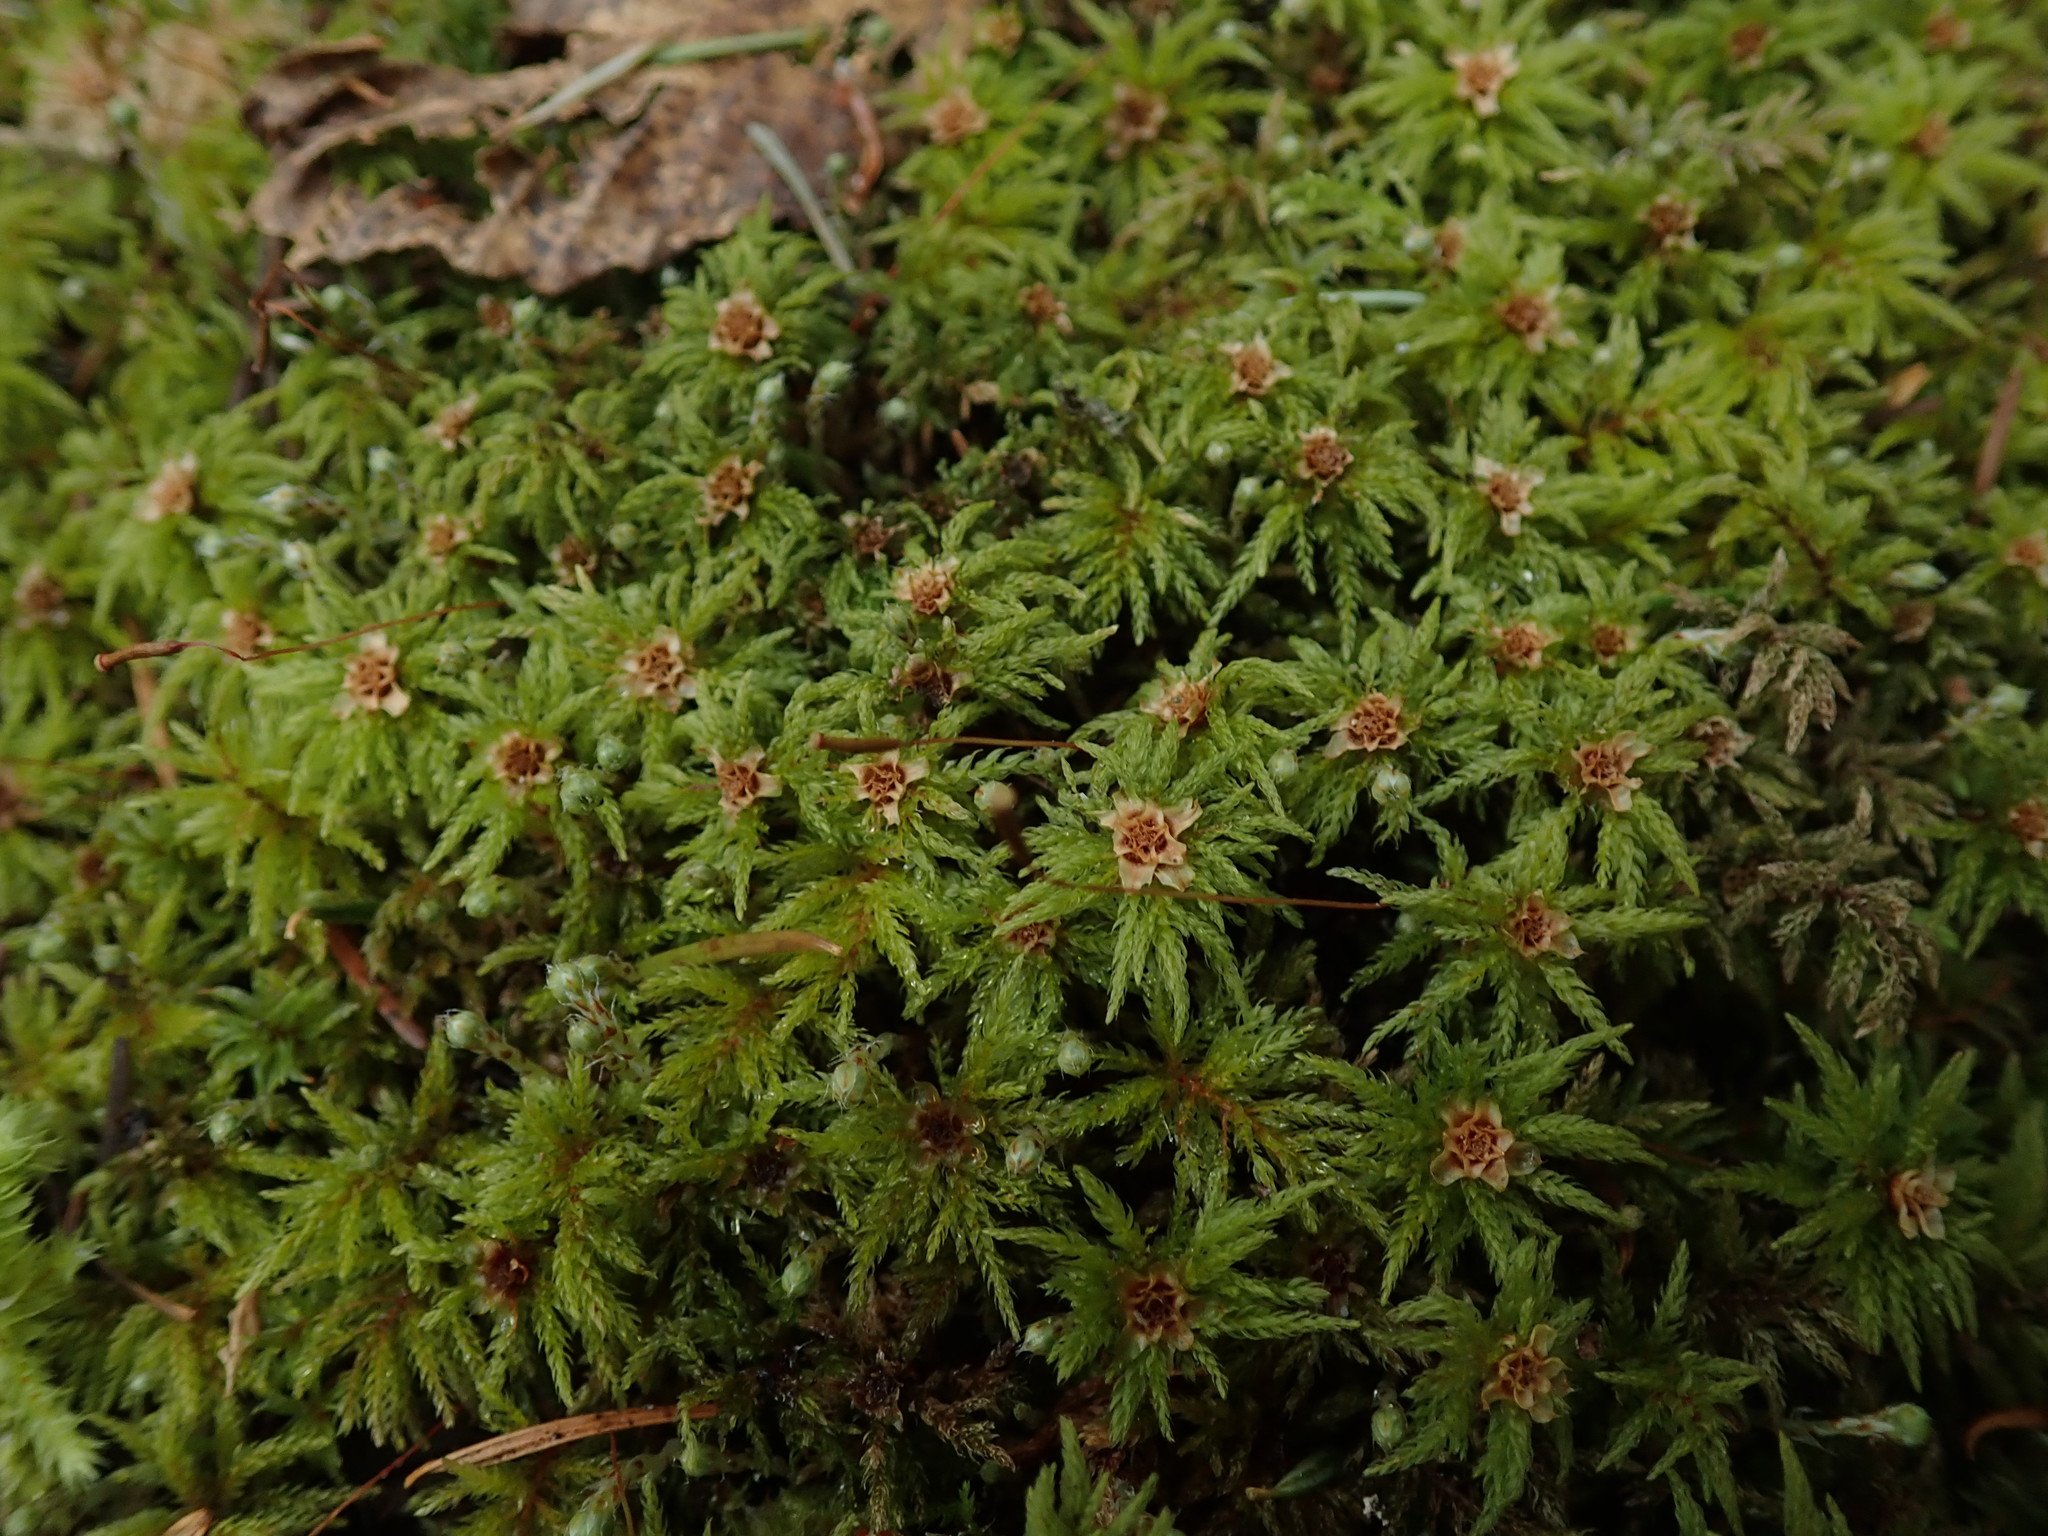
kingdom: Plantae
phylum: Bryophyta
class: Bryopsida
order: Bryales
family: Mniaceae
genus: Leucolepis
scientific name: Leucolepis acanthoneura
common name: Leucolepis umbrella moss
